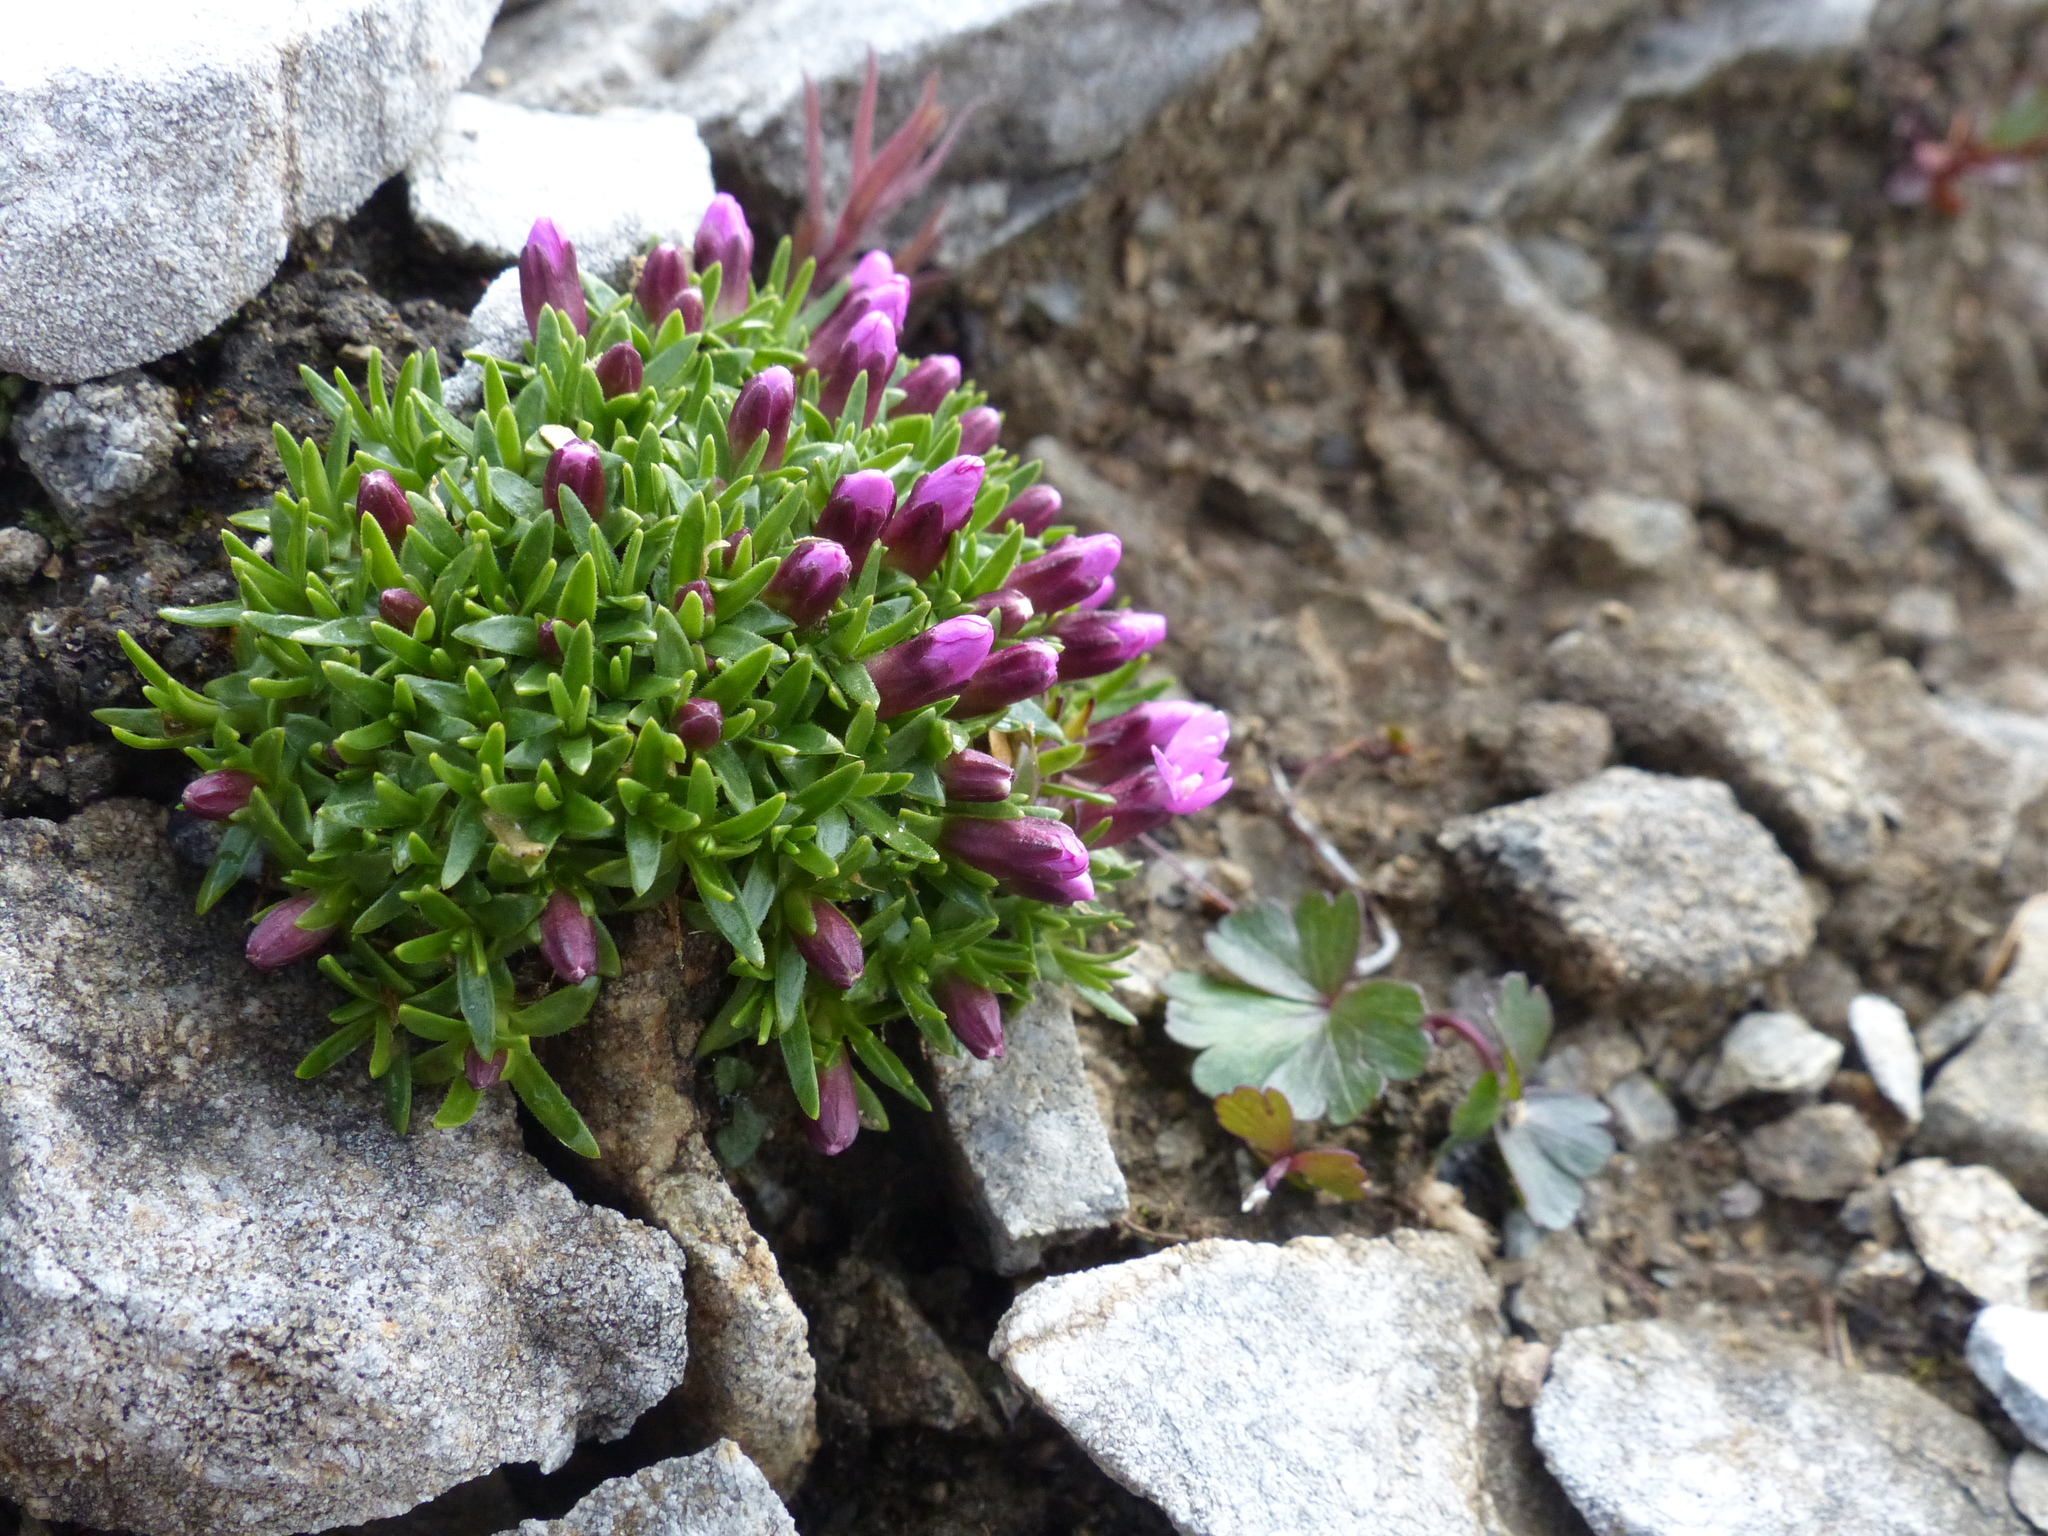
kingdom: Plantae
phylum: Tracheophyta
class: Magnoliopsida
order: Caryophyllales
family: Caryophyllaceae
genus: Silene
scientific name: Silene acaulis
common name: Moss campion
